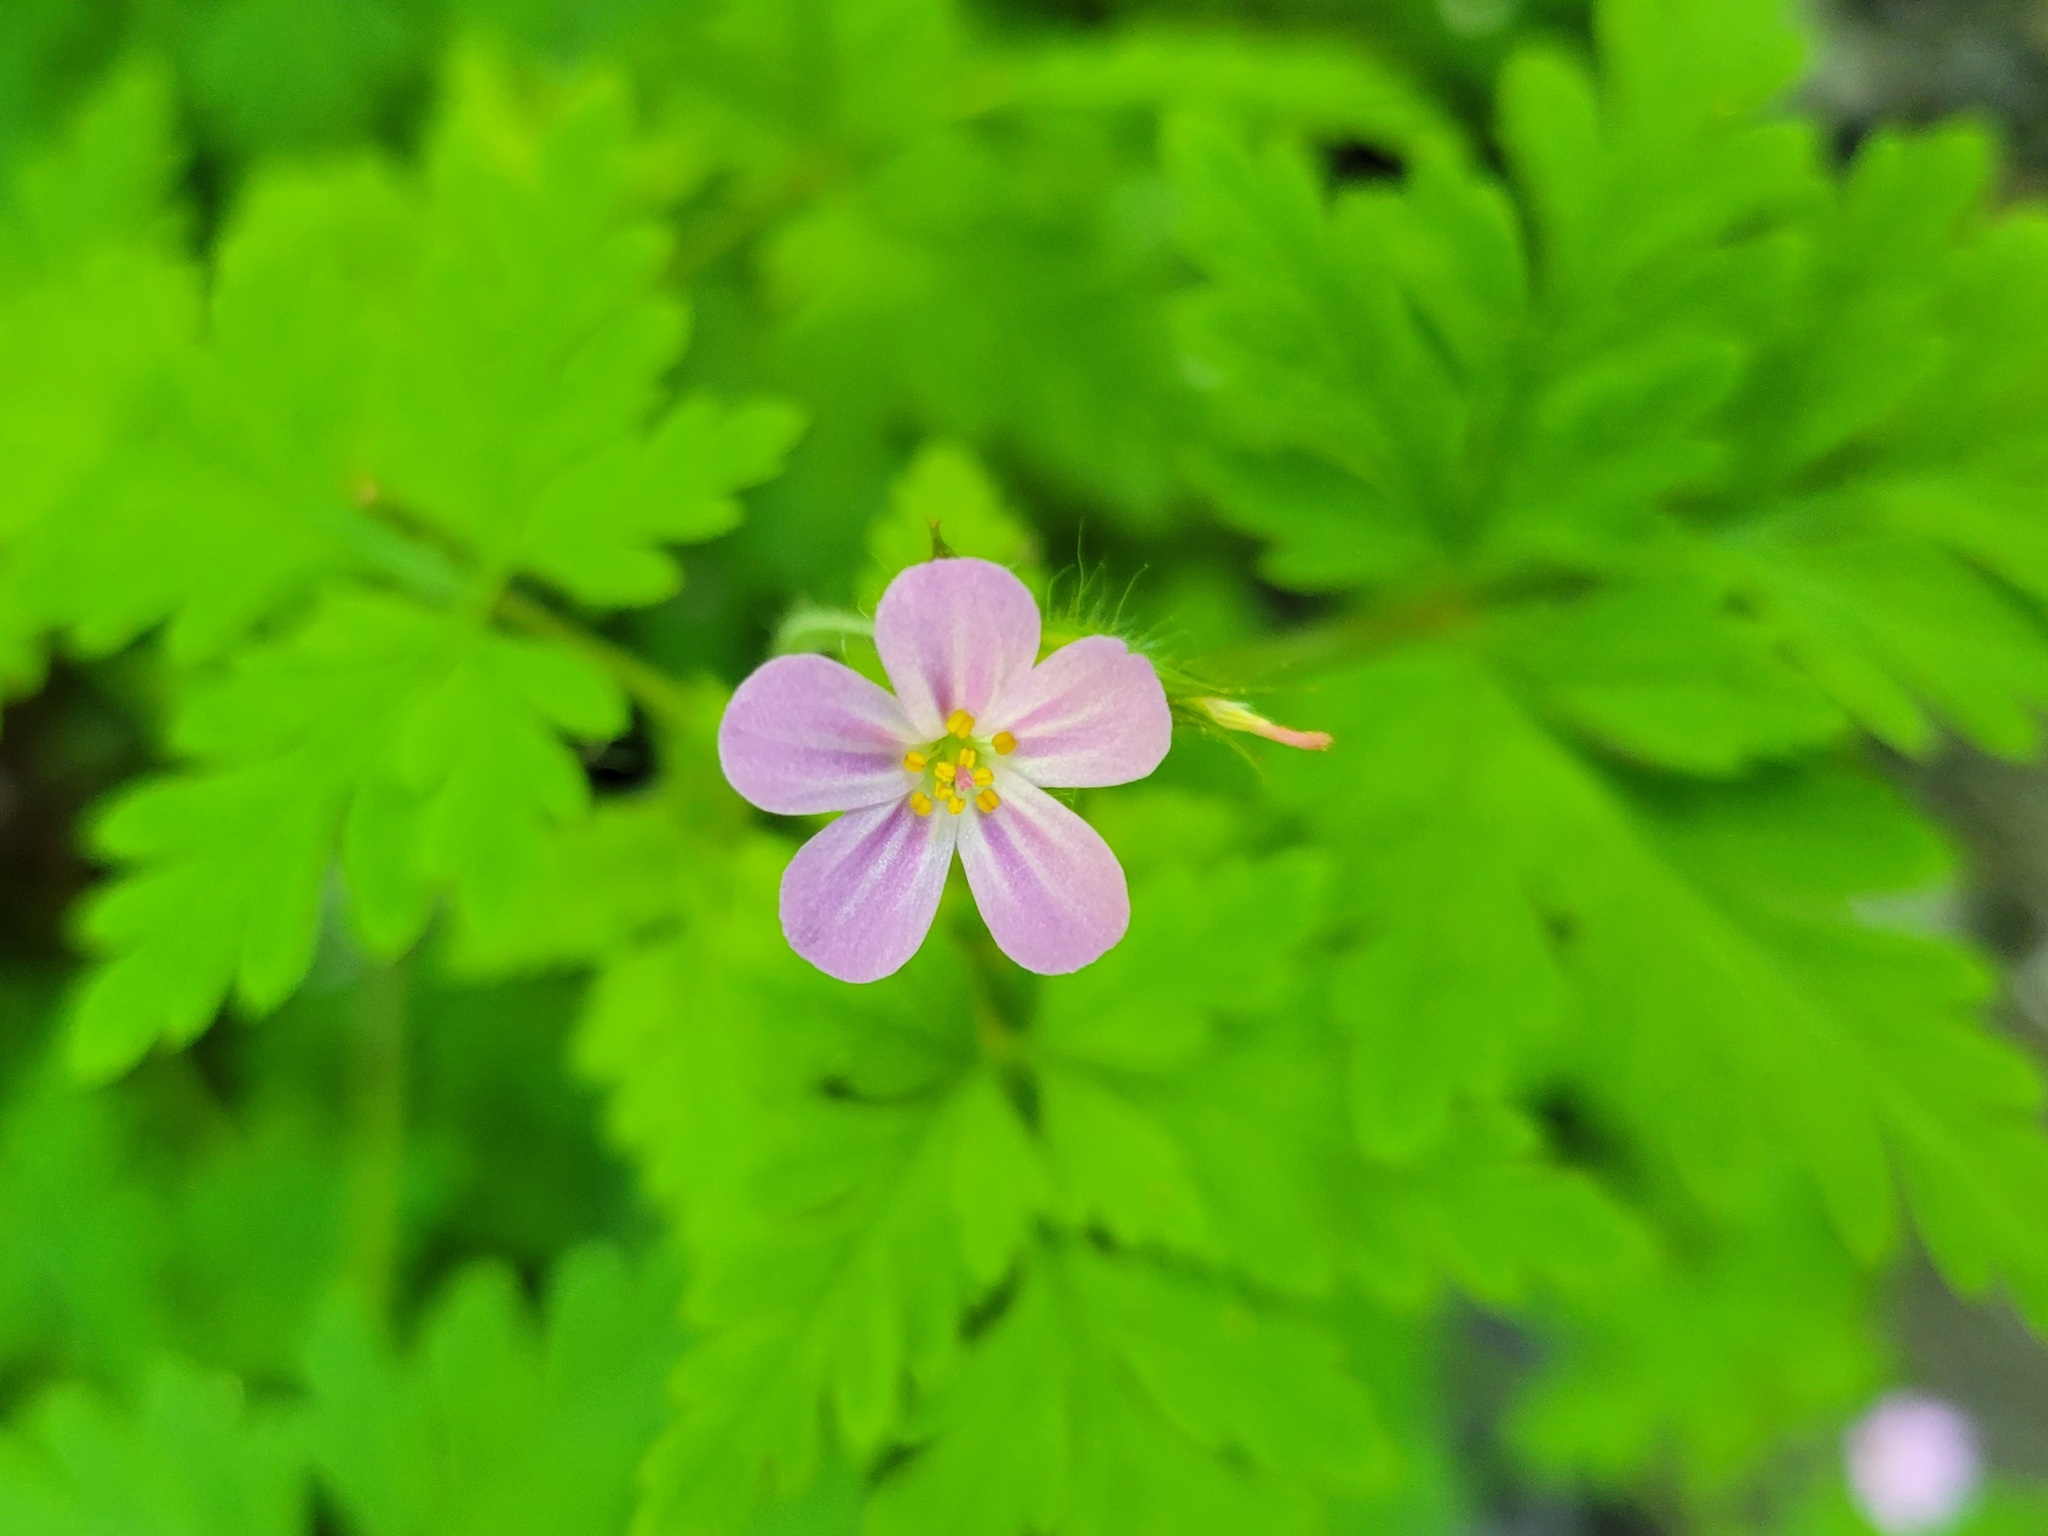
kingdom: Plantae
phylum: Tracheophyta
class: Magnoliopsida
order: Geraniales
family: Geraniaceae
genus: Geranium
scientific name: Geranium robertianum
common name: Herb-robert
